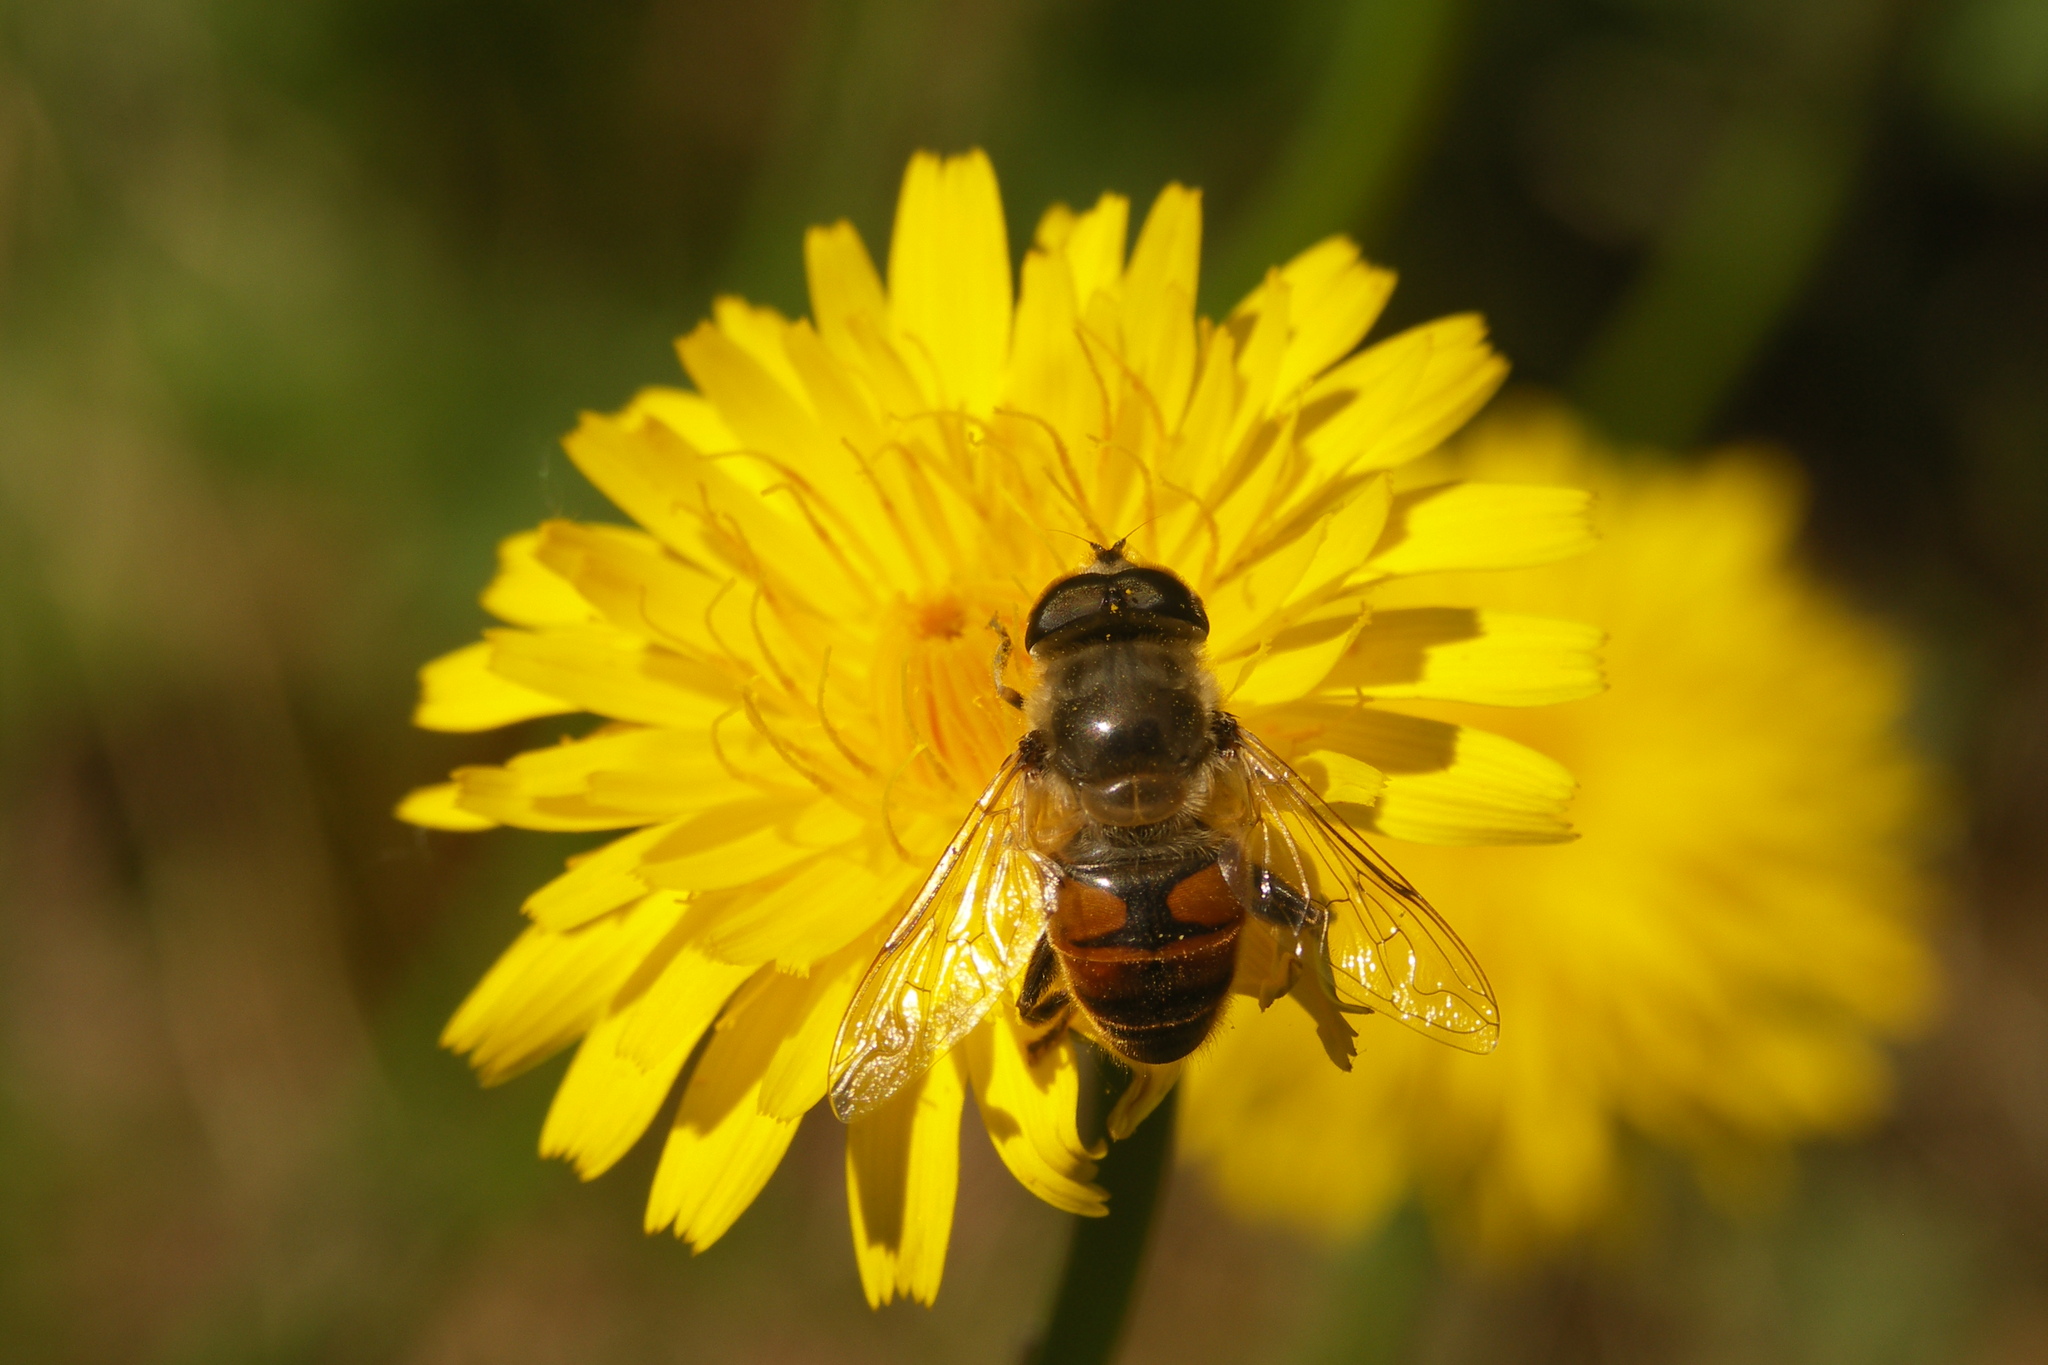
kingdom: Animalia
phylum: Arthropoda
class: Insecta
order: Diptera
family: Syrphidae
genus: Eristalis
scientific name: Eristalis tenax
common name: Drone fly
